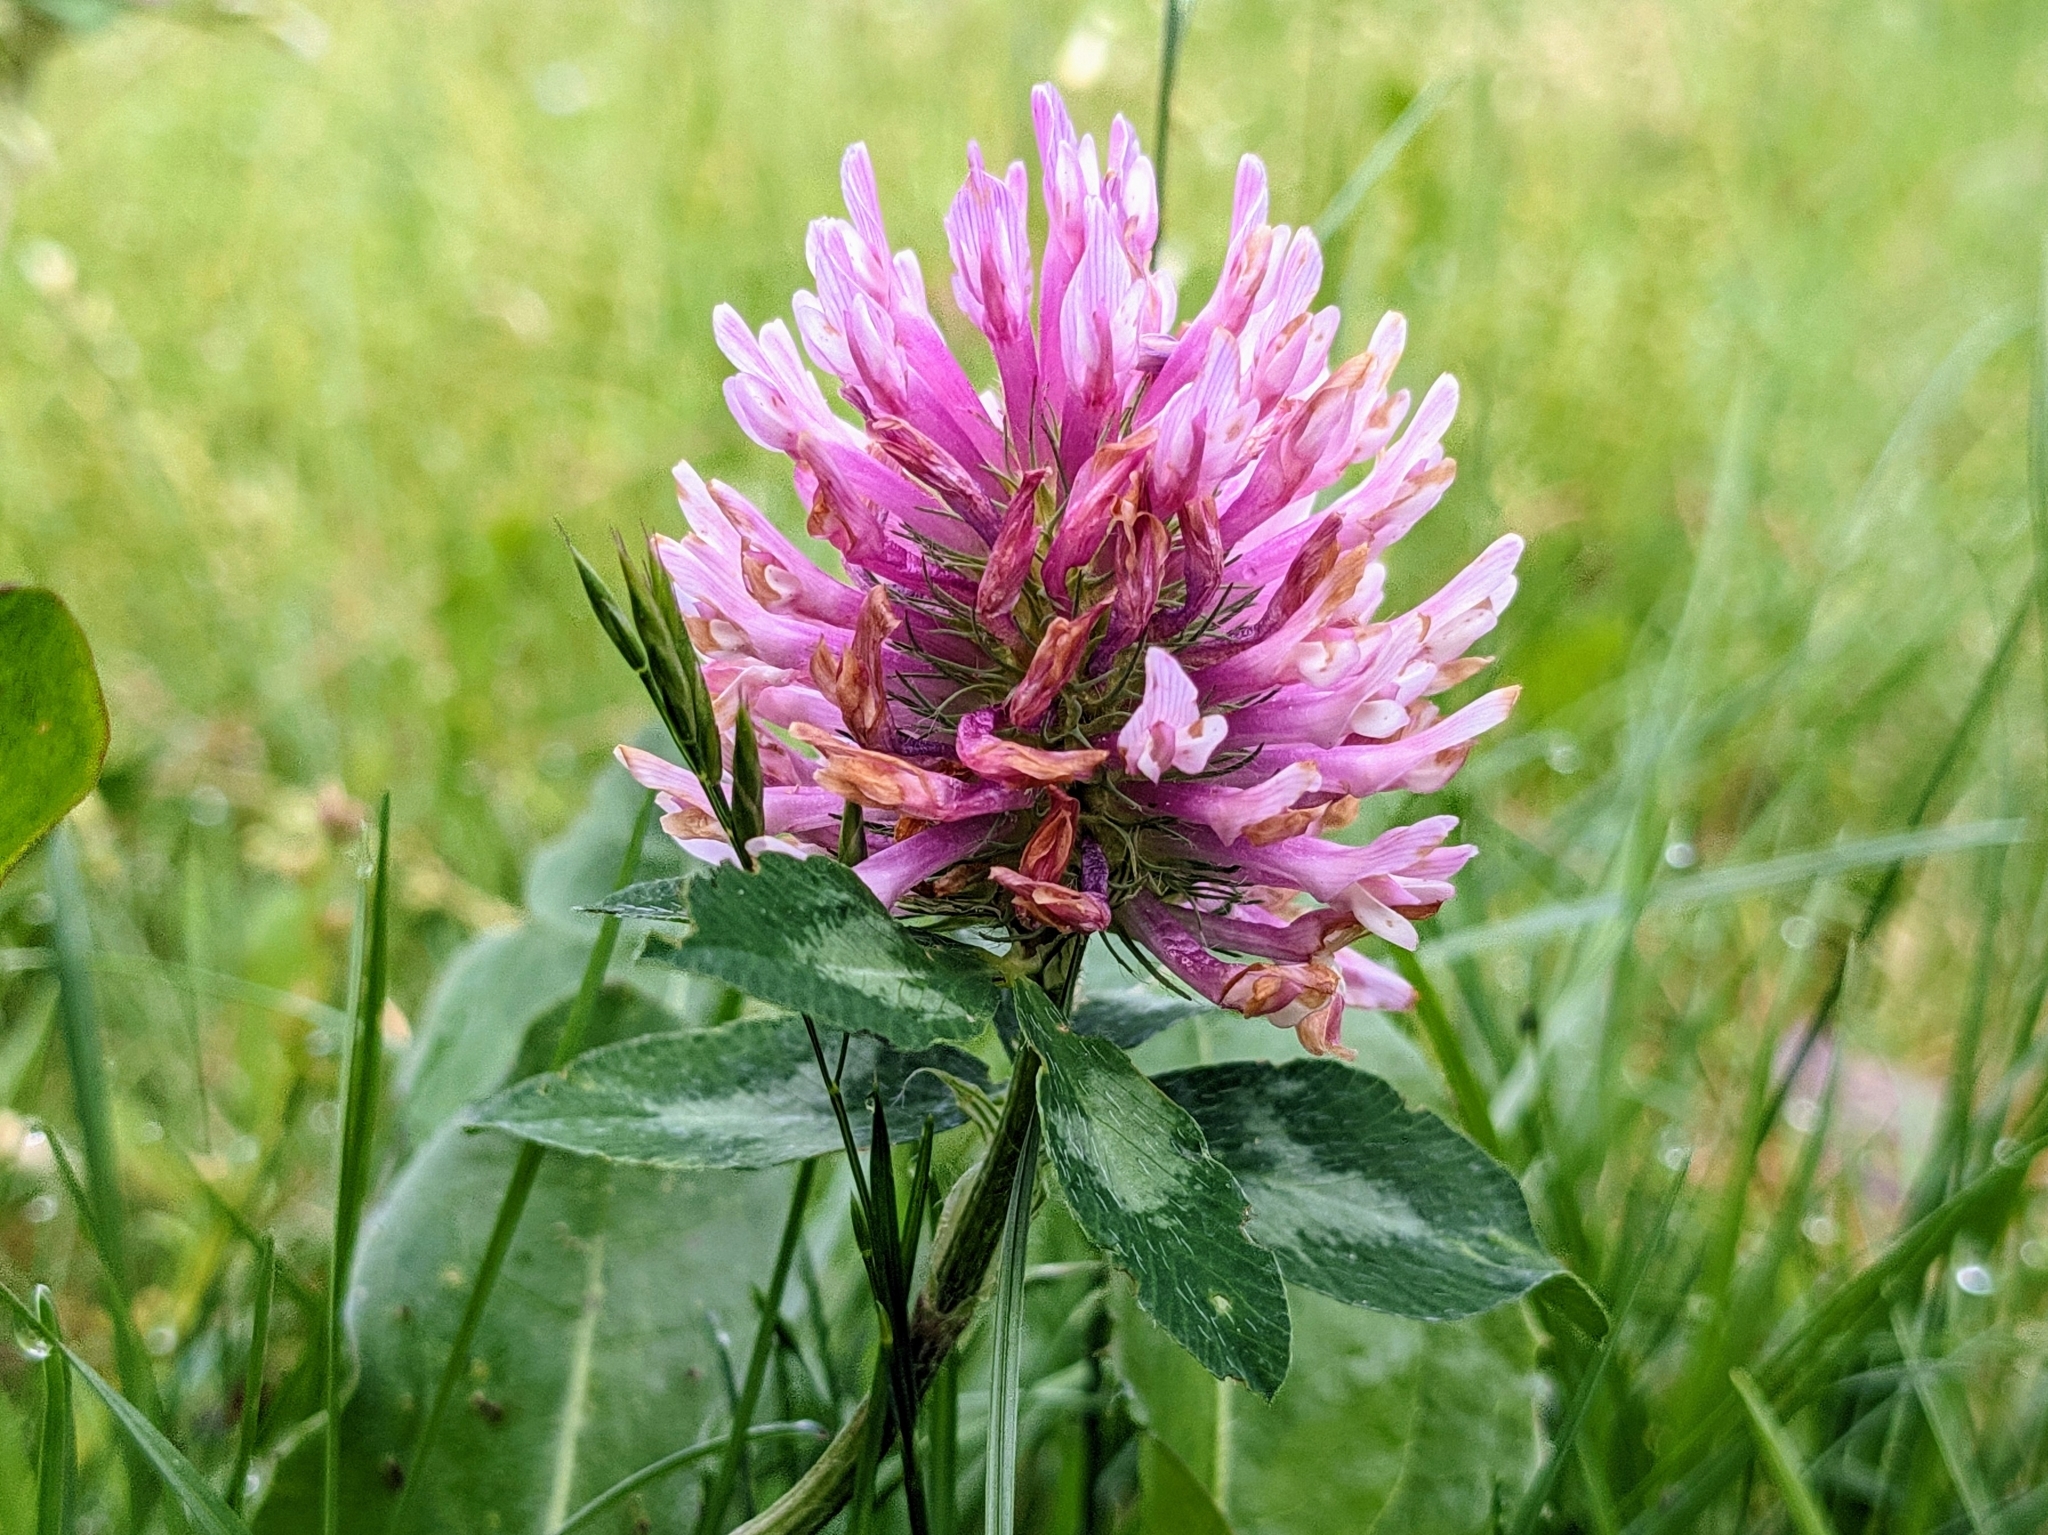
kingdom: Plantae
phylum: Tracheophyta
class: Magnoliopsida
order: Fabales
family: Fabaceae
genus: Trifolium
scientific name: Trifolium pratense
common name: Red clover
